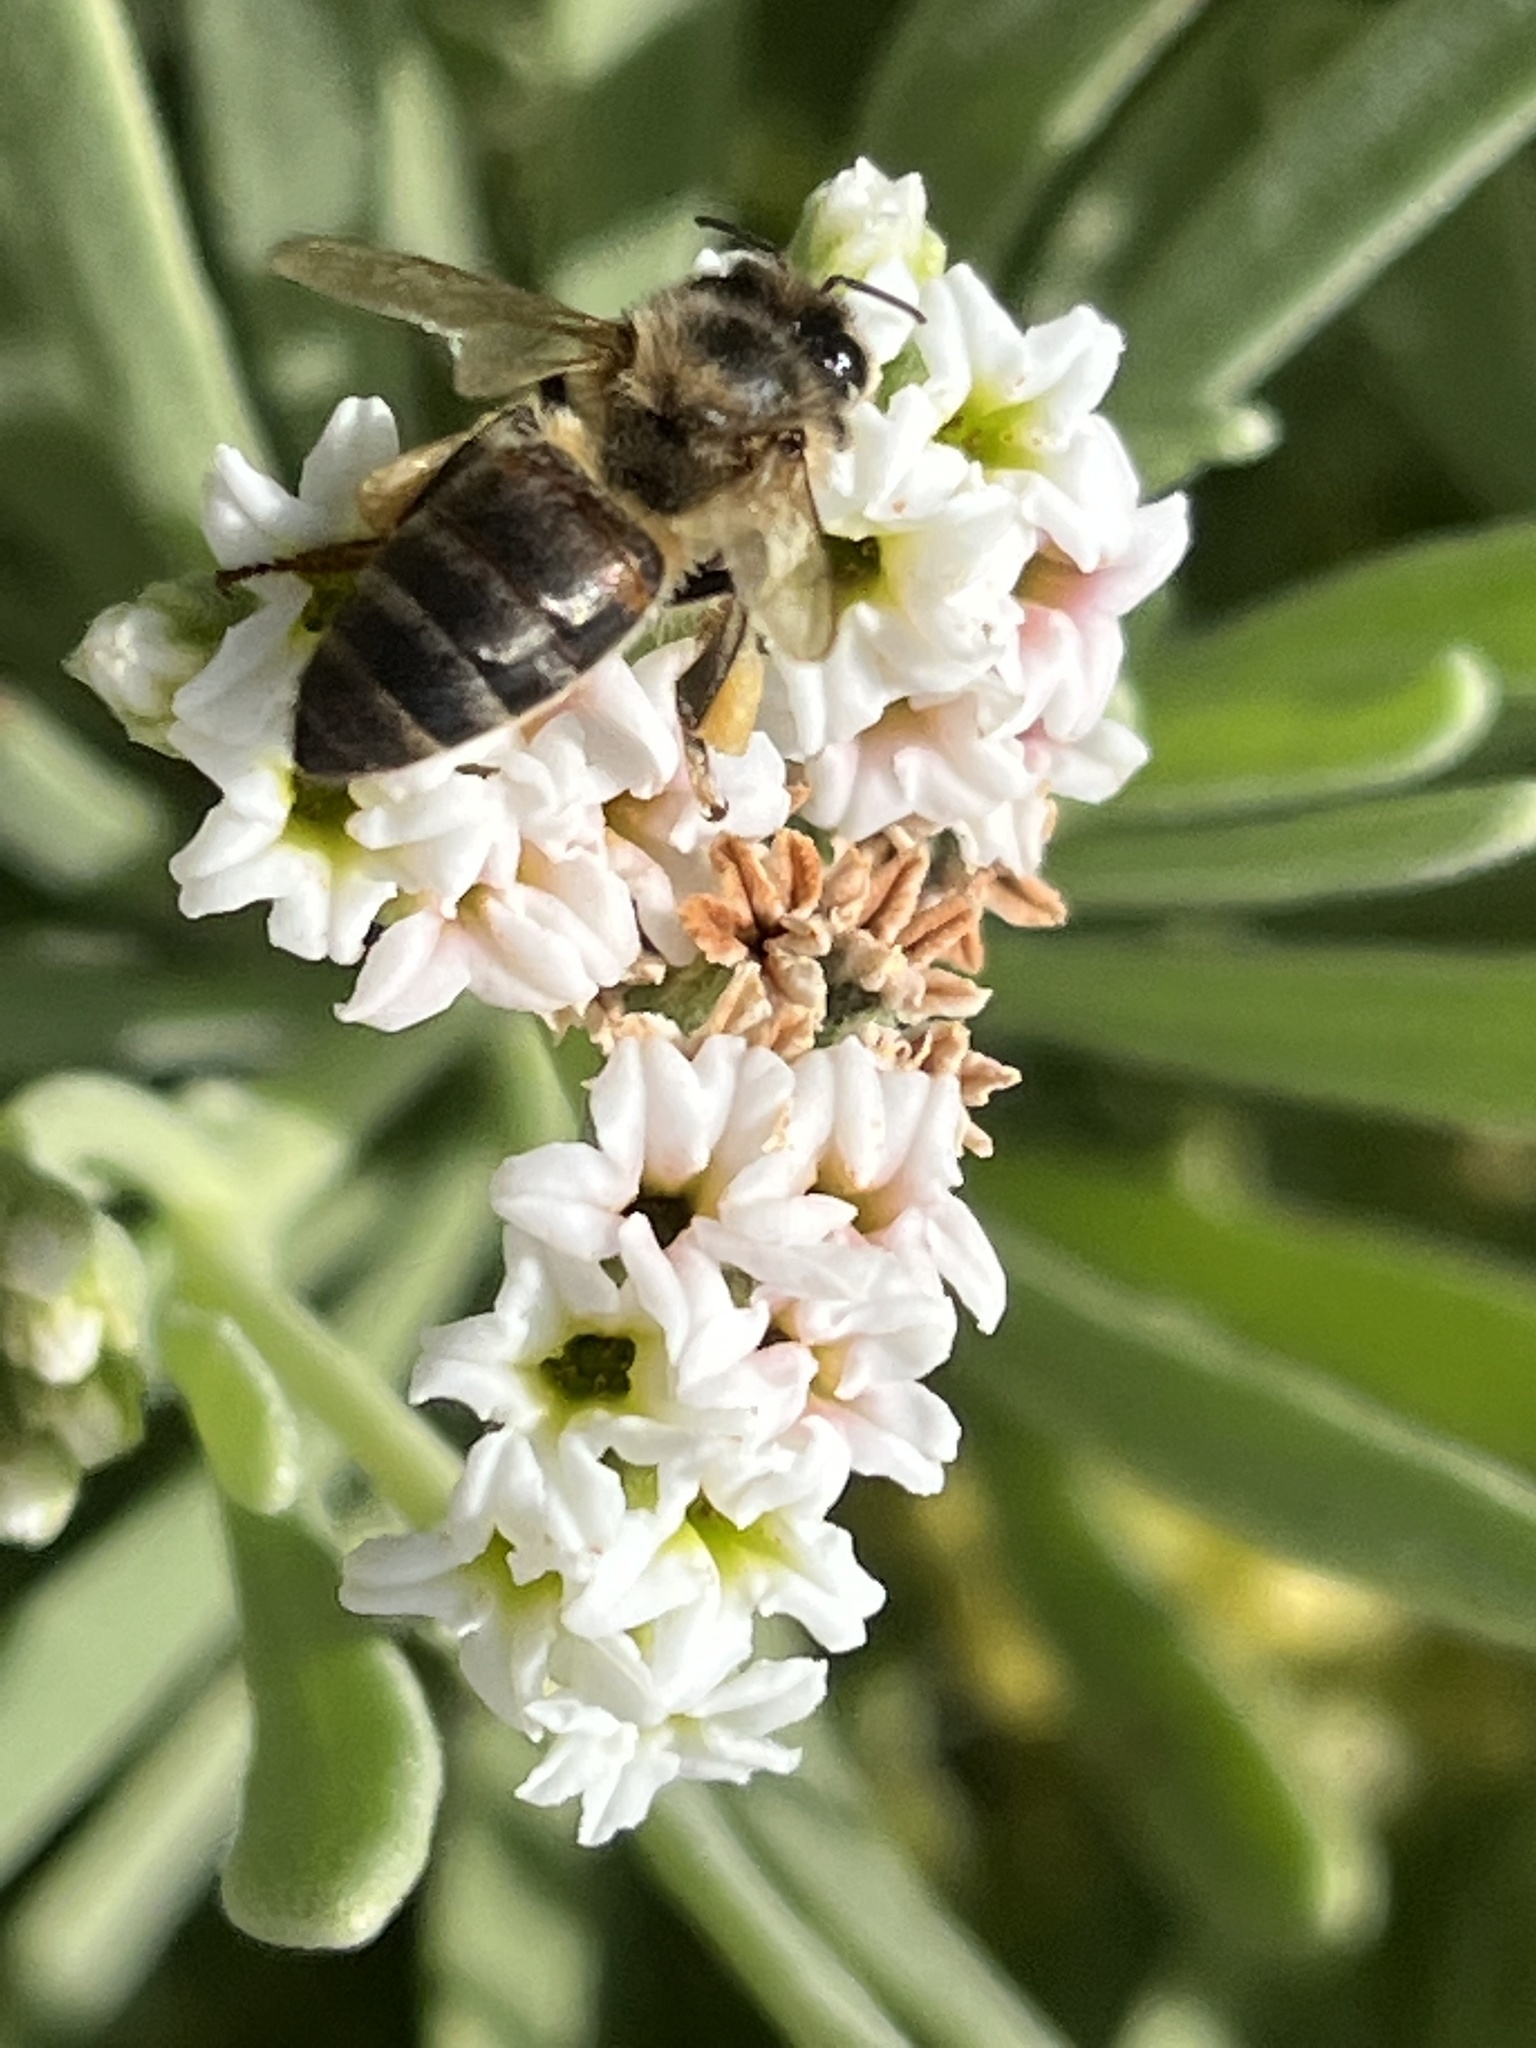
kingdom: Animalia
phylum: Arthropoda
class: Insecta
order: Hymenoptera
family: Apidae
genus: Apis
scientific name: Apis mellifera
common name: Honey bee
